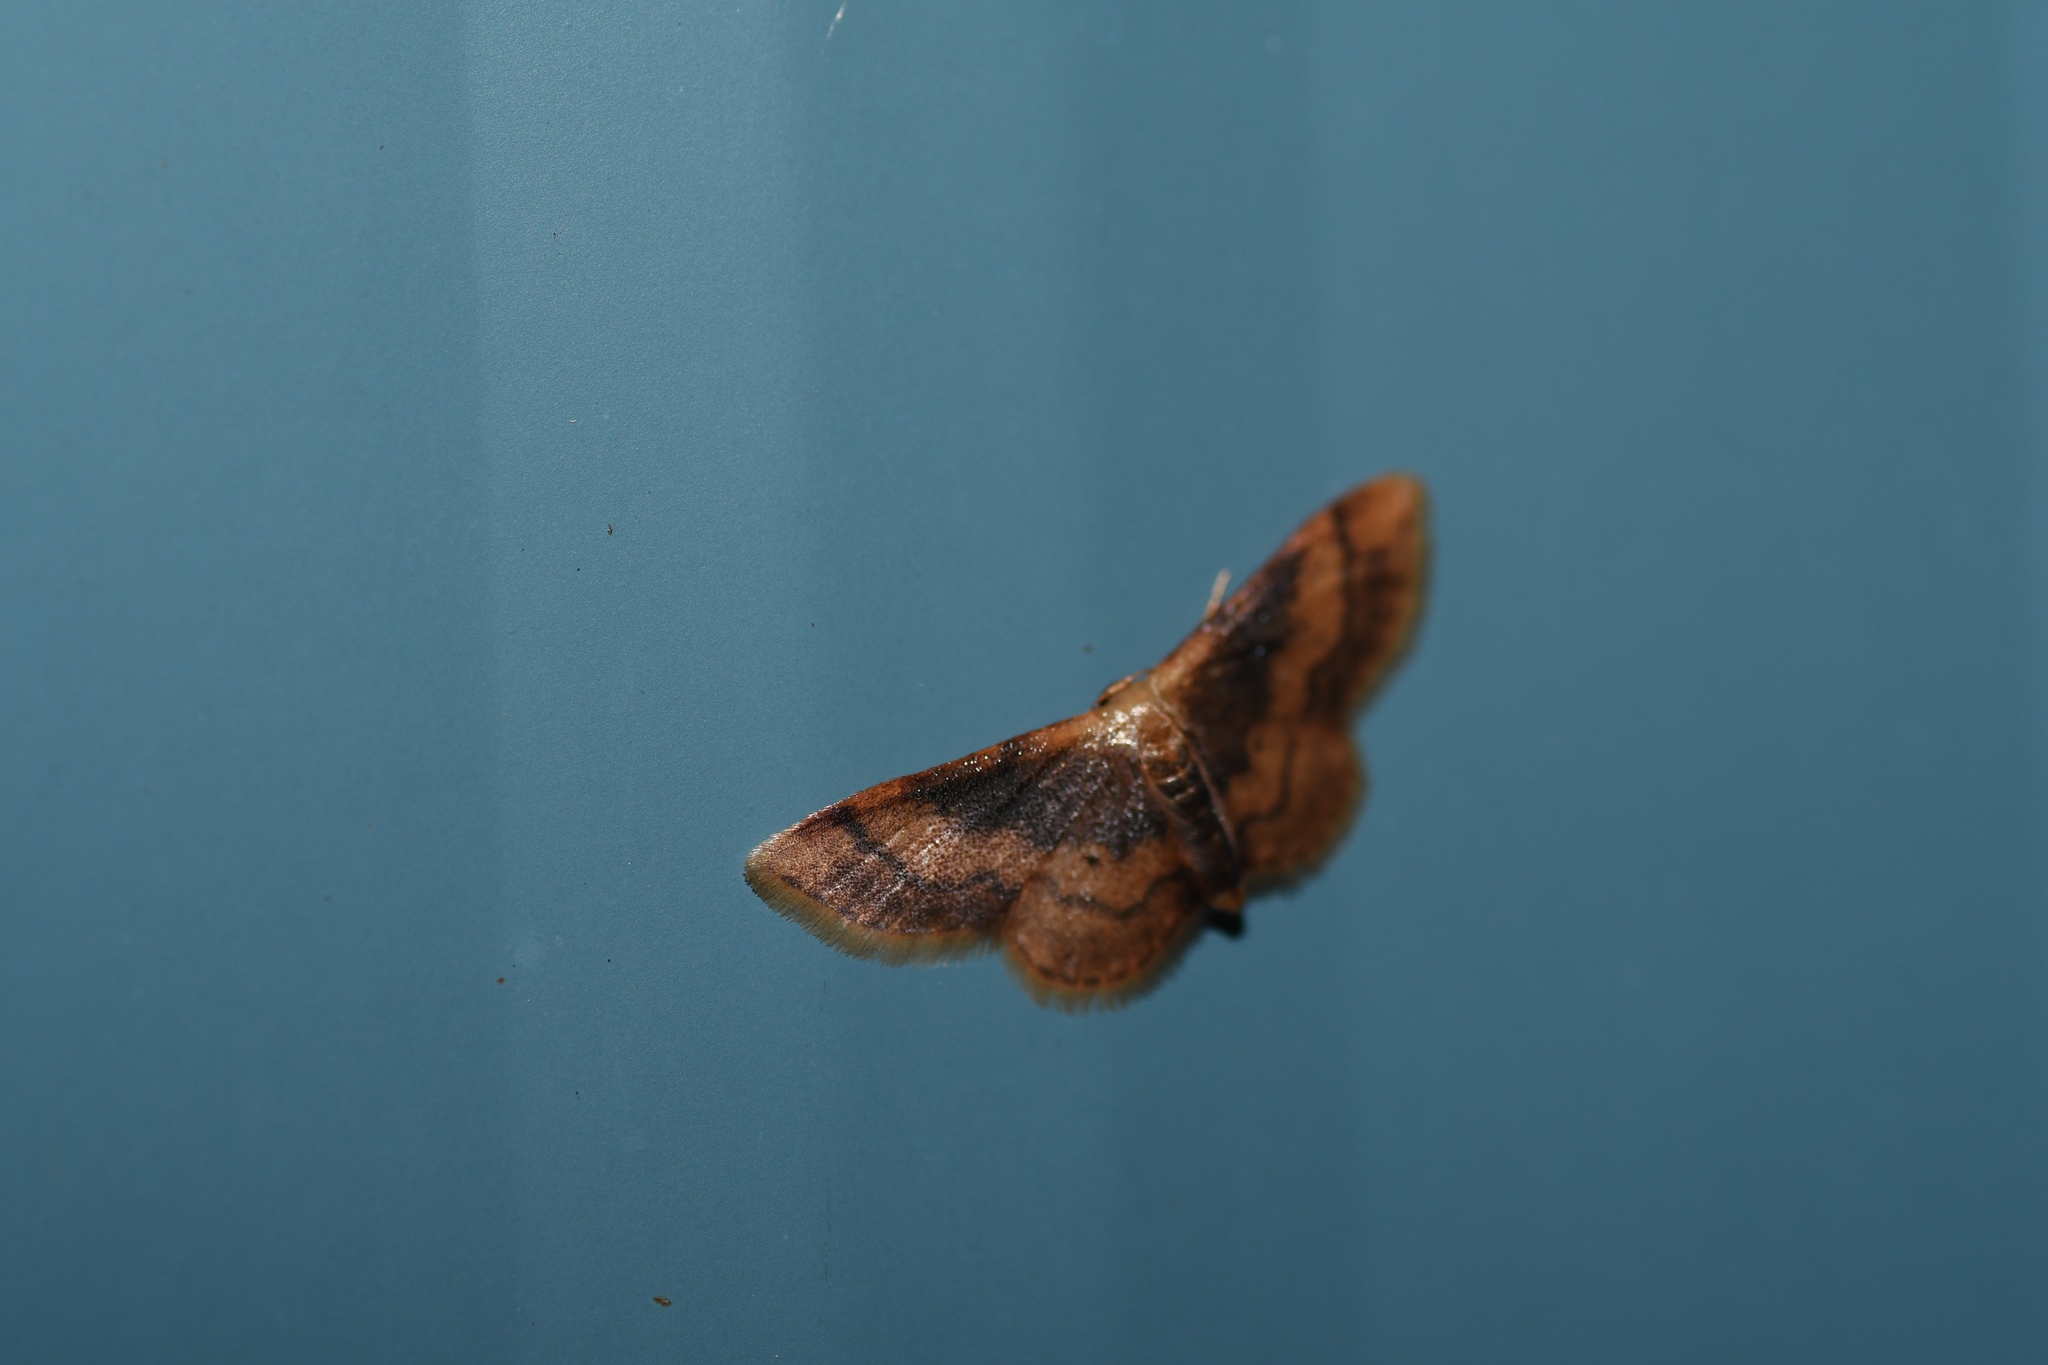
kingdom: Animalia
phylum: Arthropoda
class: Insecta
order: Lepidoptera
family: Geometridae
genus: Idaea
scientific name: Idaea demissaria
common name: Red-bordered wave
